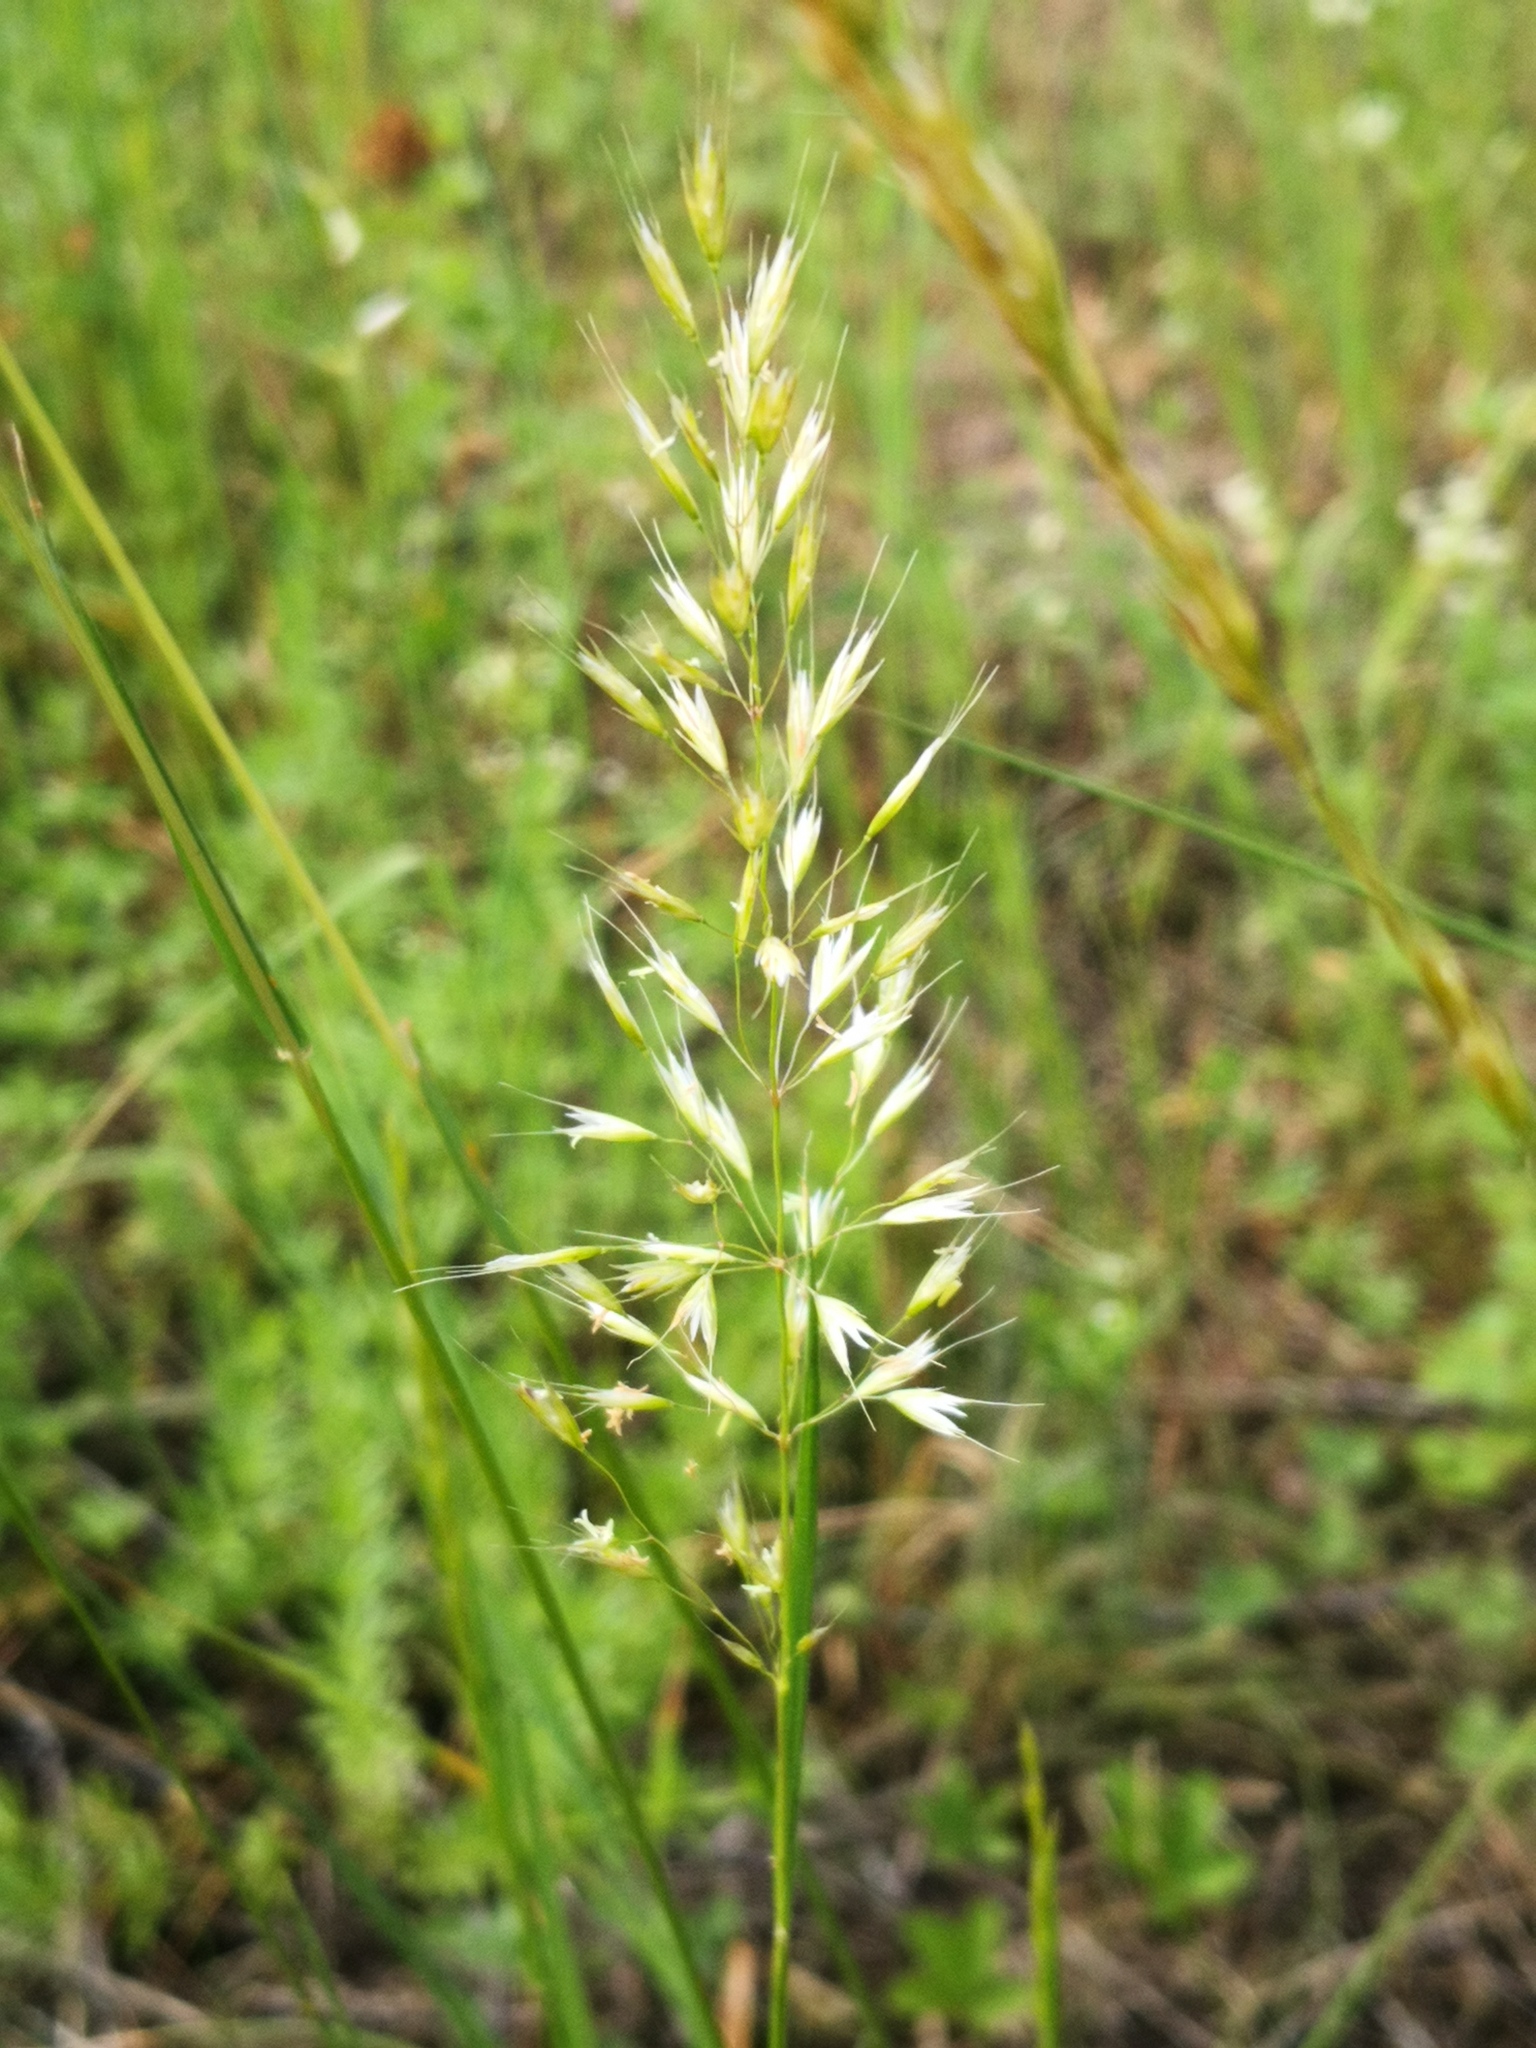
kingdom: Plantae
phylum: Tracheophyta
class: Liliopsida
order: Poales
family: Poaceae
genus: Trisetum
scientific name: Trisetum flavescens
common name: Yellow oat-grass
